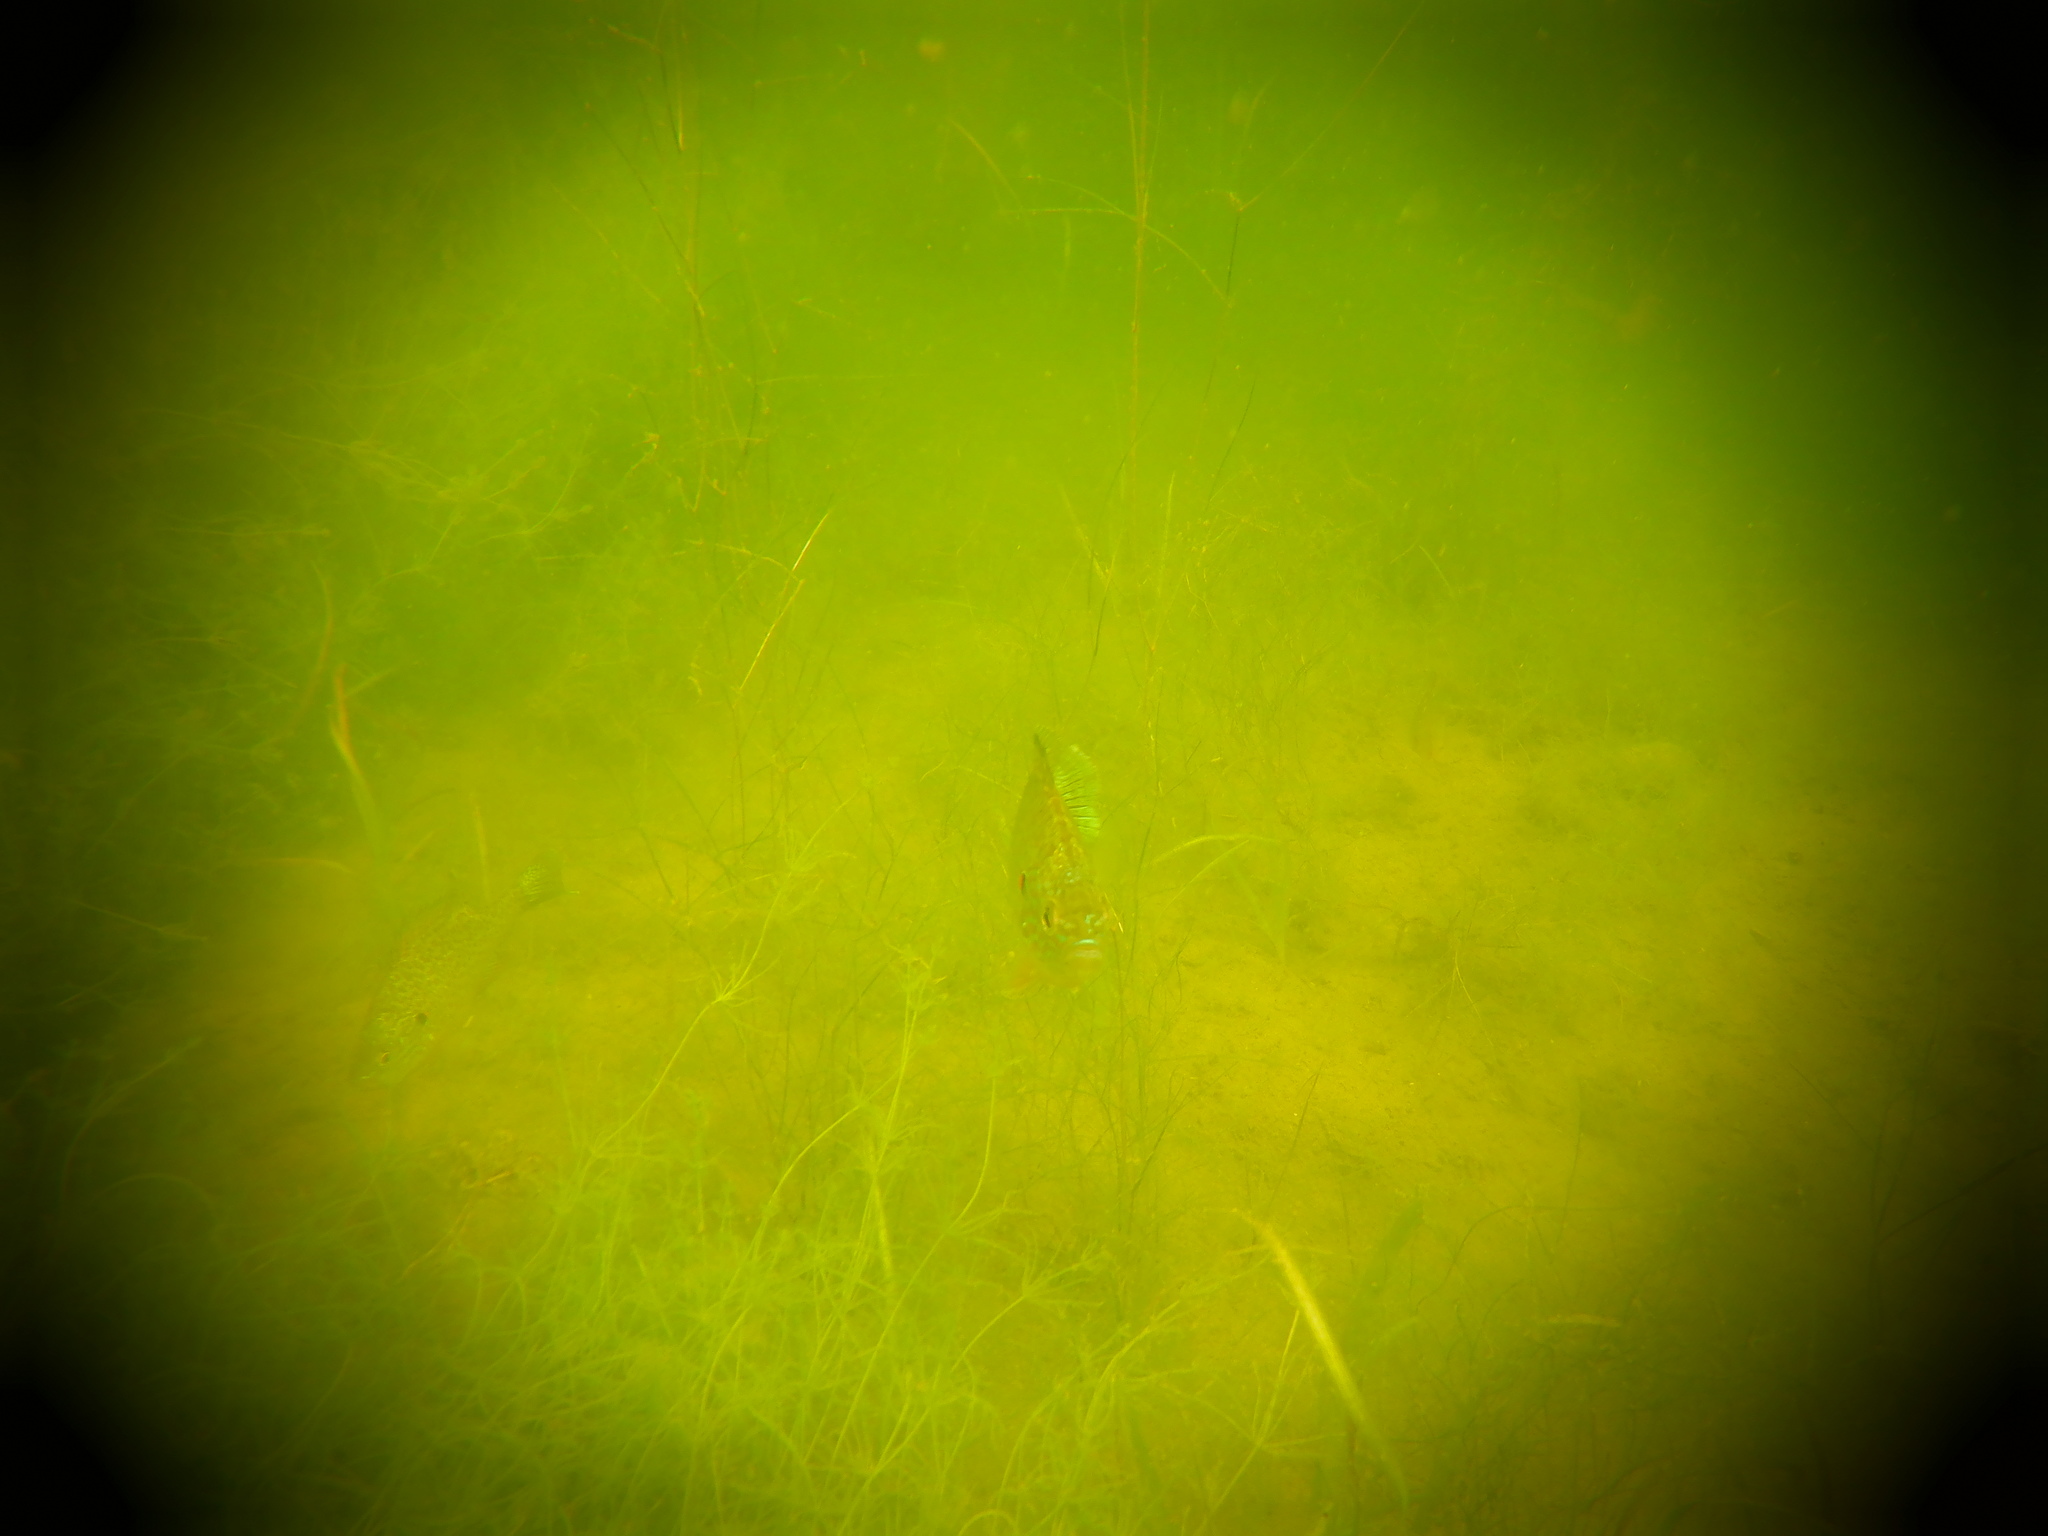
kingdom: Animalia
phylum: Chordata
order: Perciformes
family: Centrarchidae
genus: Lepomis
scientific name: Lepomis gibbosus
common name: Pumpkinseed
